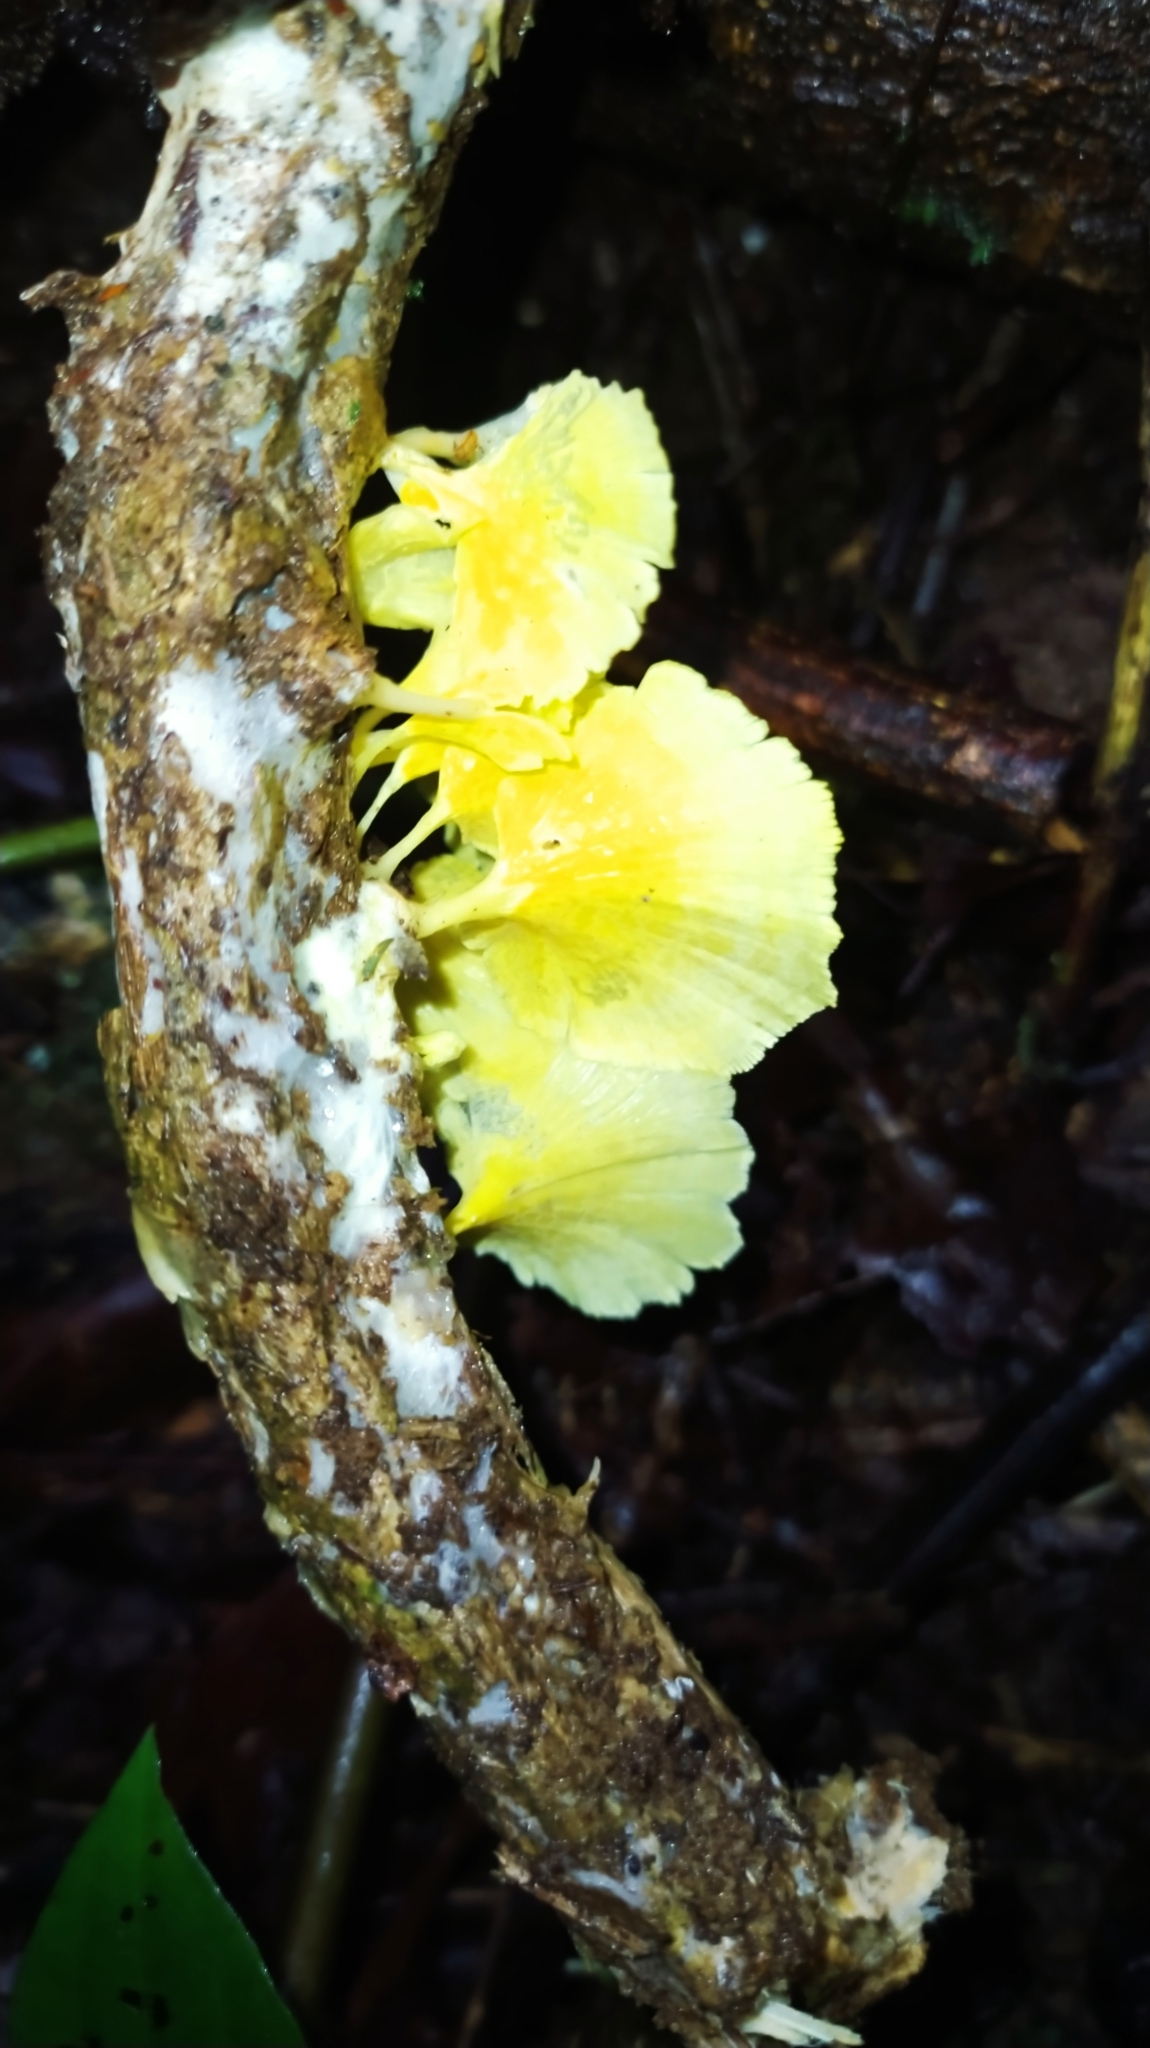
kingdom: Fungi
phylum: Basidiomycota
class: Agaricomycetes
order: Hymenochaetales
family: Rickenellaceae
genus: Cotylidia
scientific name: Cotylidia aurantiaca
